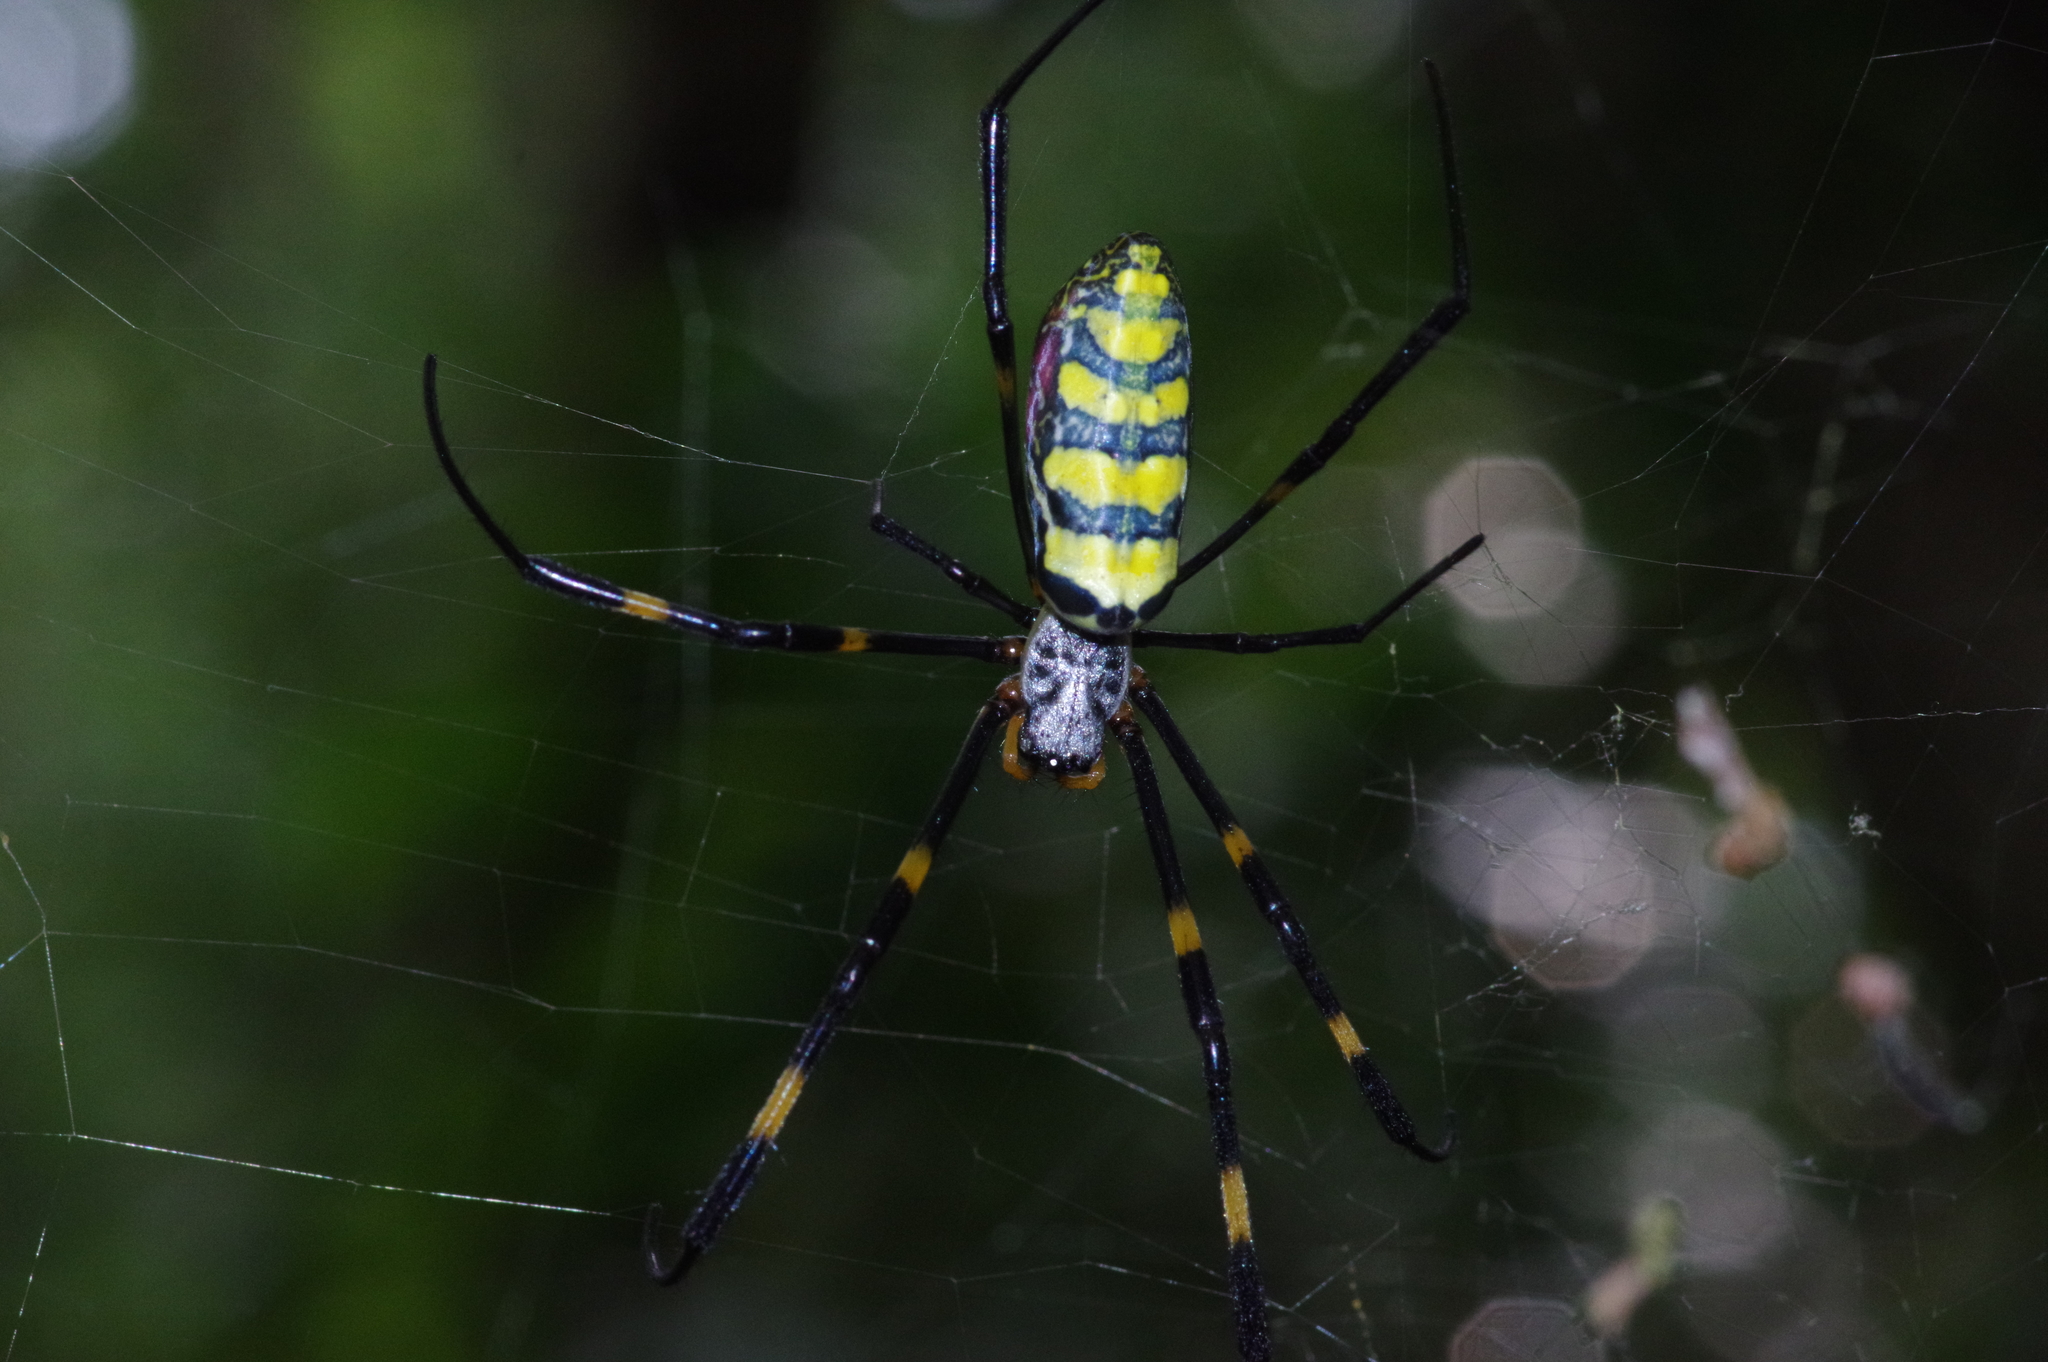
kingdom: Animalia
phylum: Arthropoda
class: Arachnida
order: Araneae
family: Araneidae
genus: Trichonephila
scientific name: Trichonephila clavata
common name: Jorō spider
